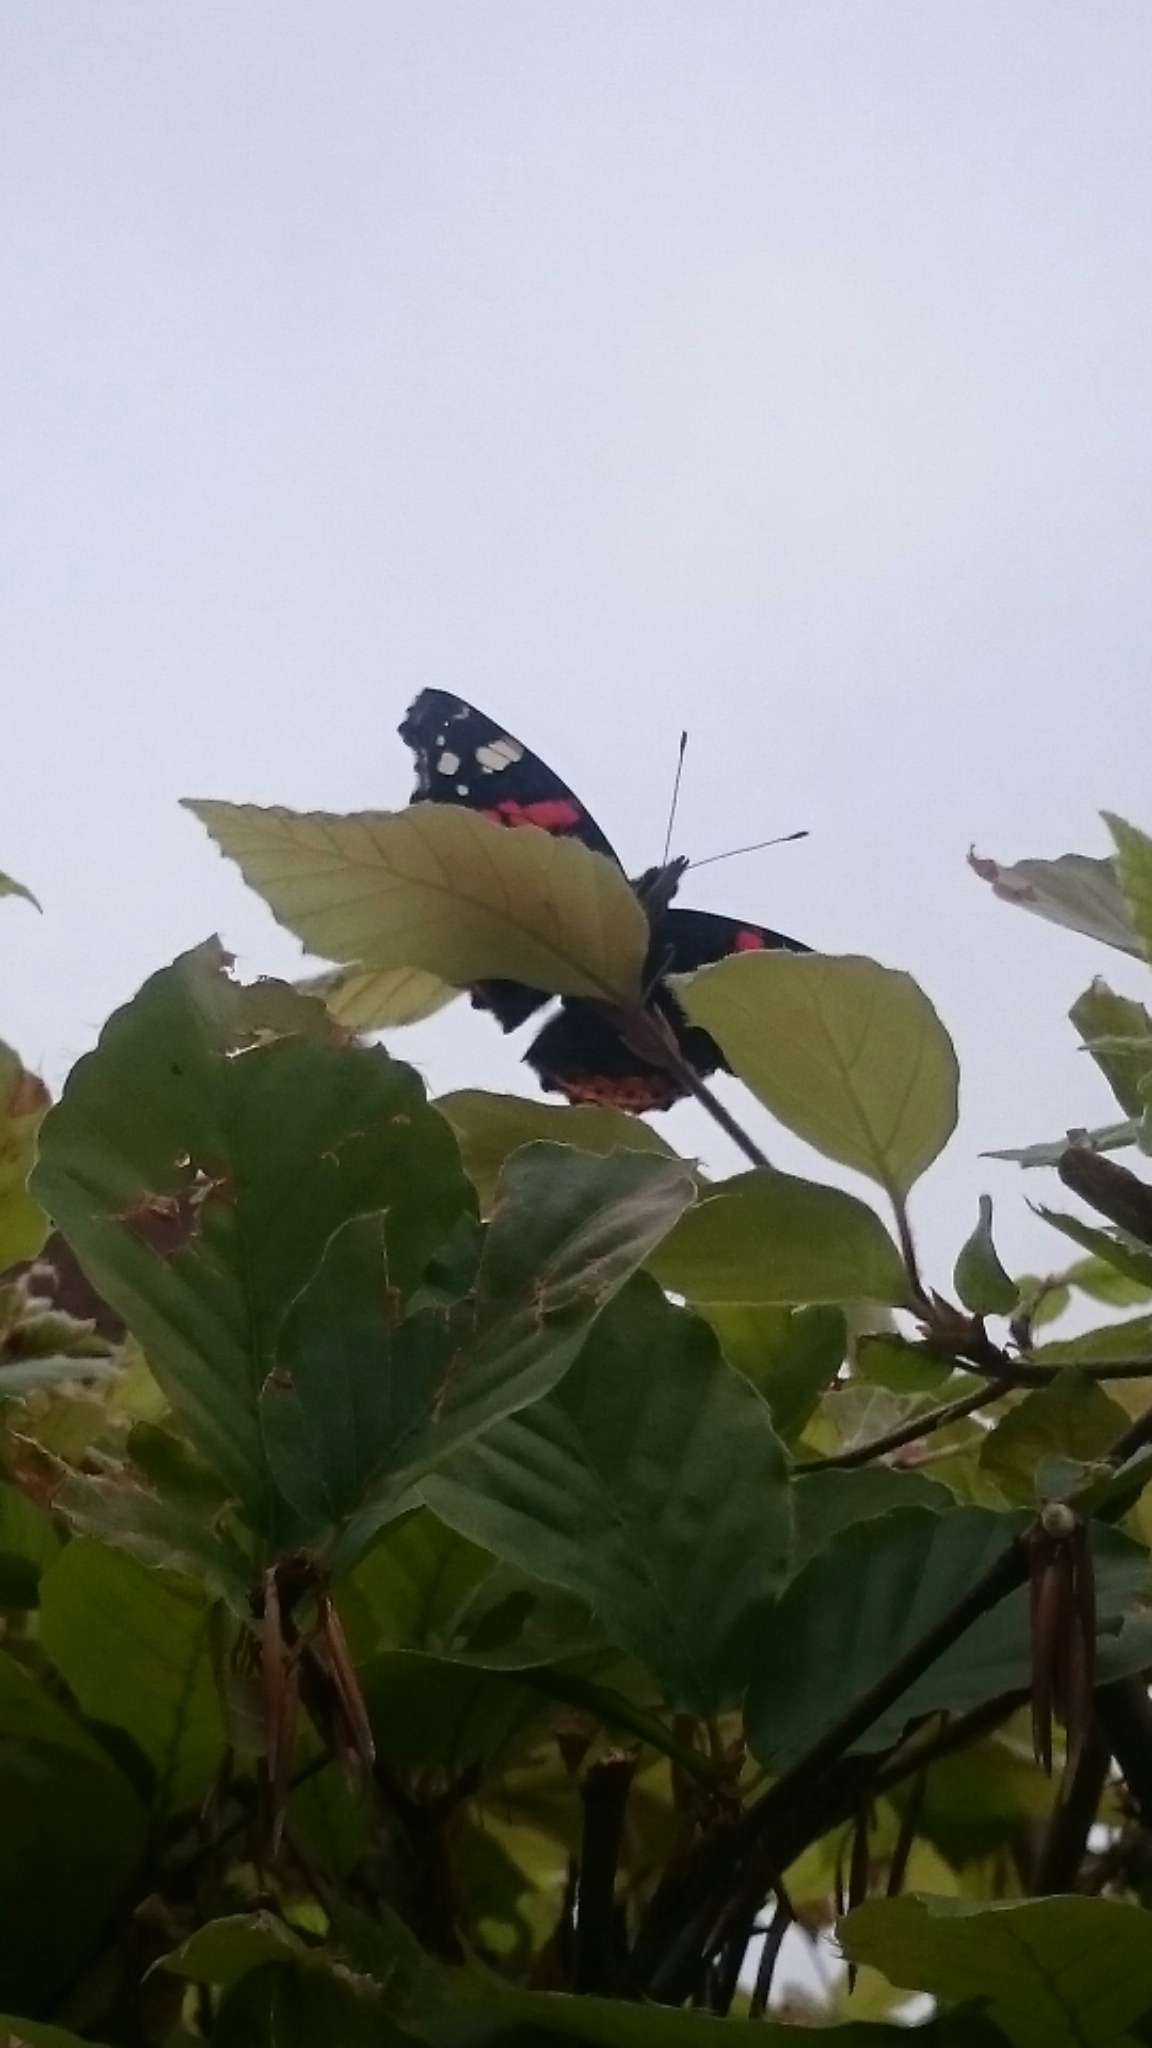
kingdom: Animalia
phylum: Arthropoda
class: Insecta
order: Lepidoptera
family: Nymphalidae
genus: Vanessa
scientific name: Vanessa atalanta
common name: Red admiral
